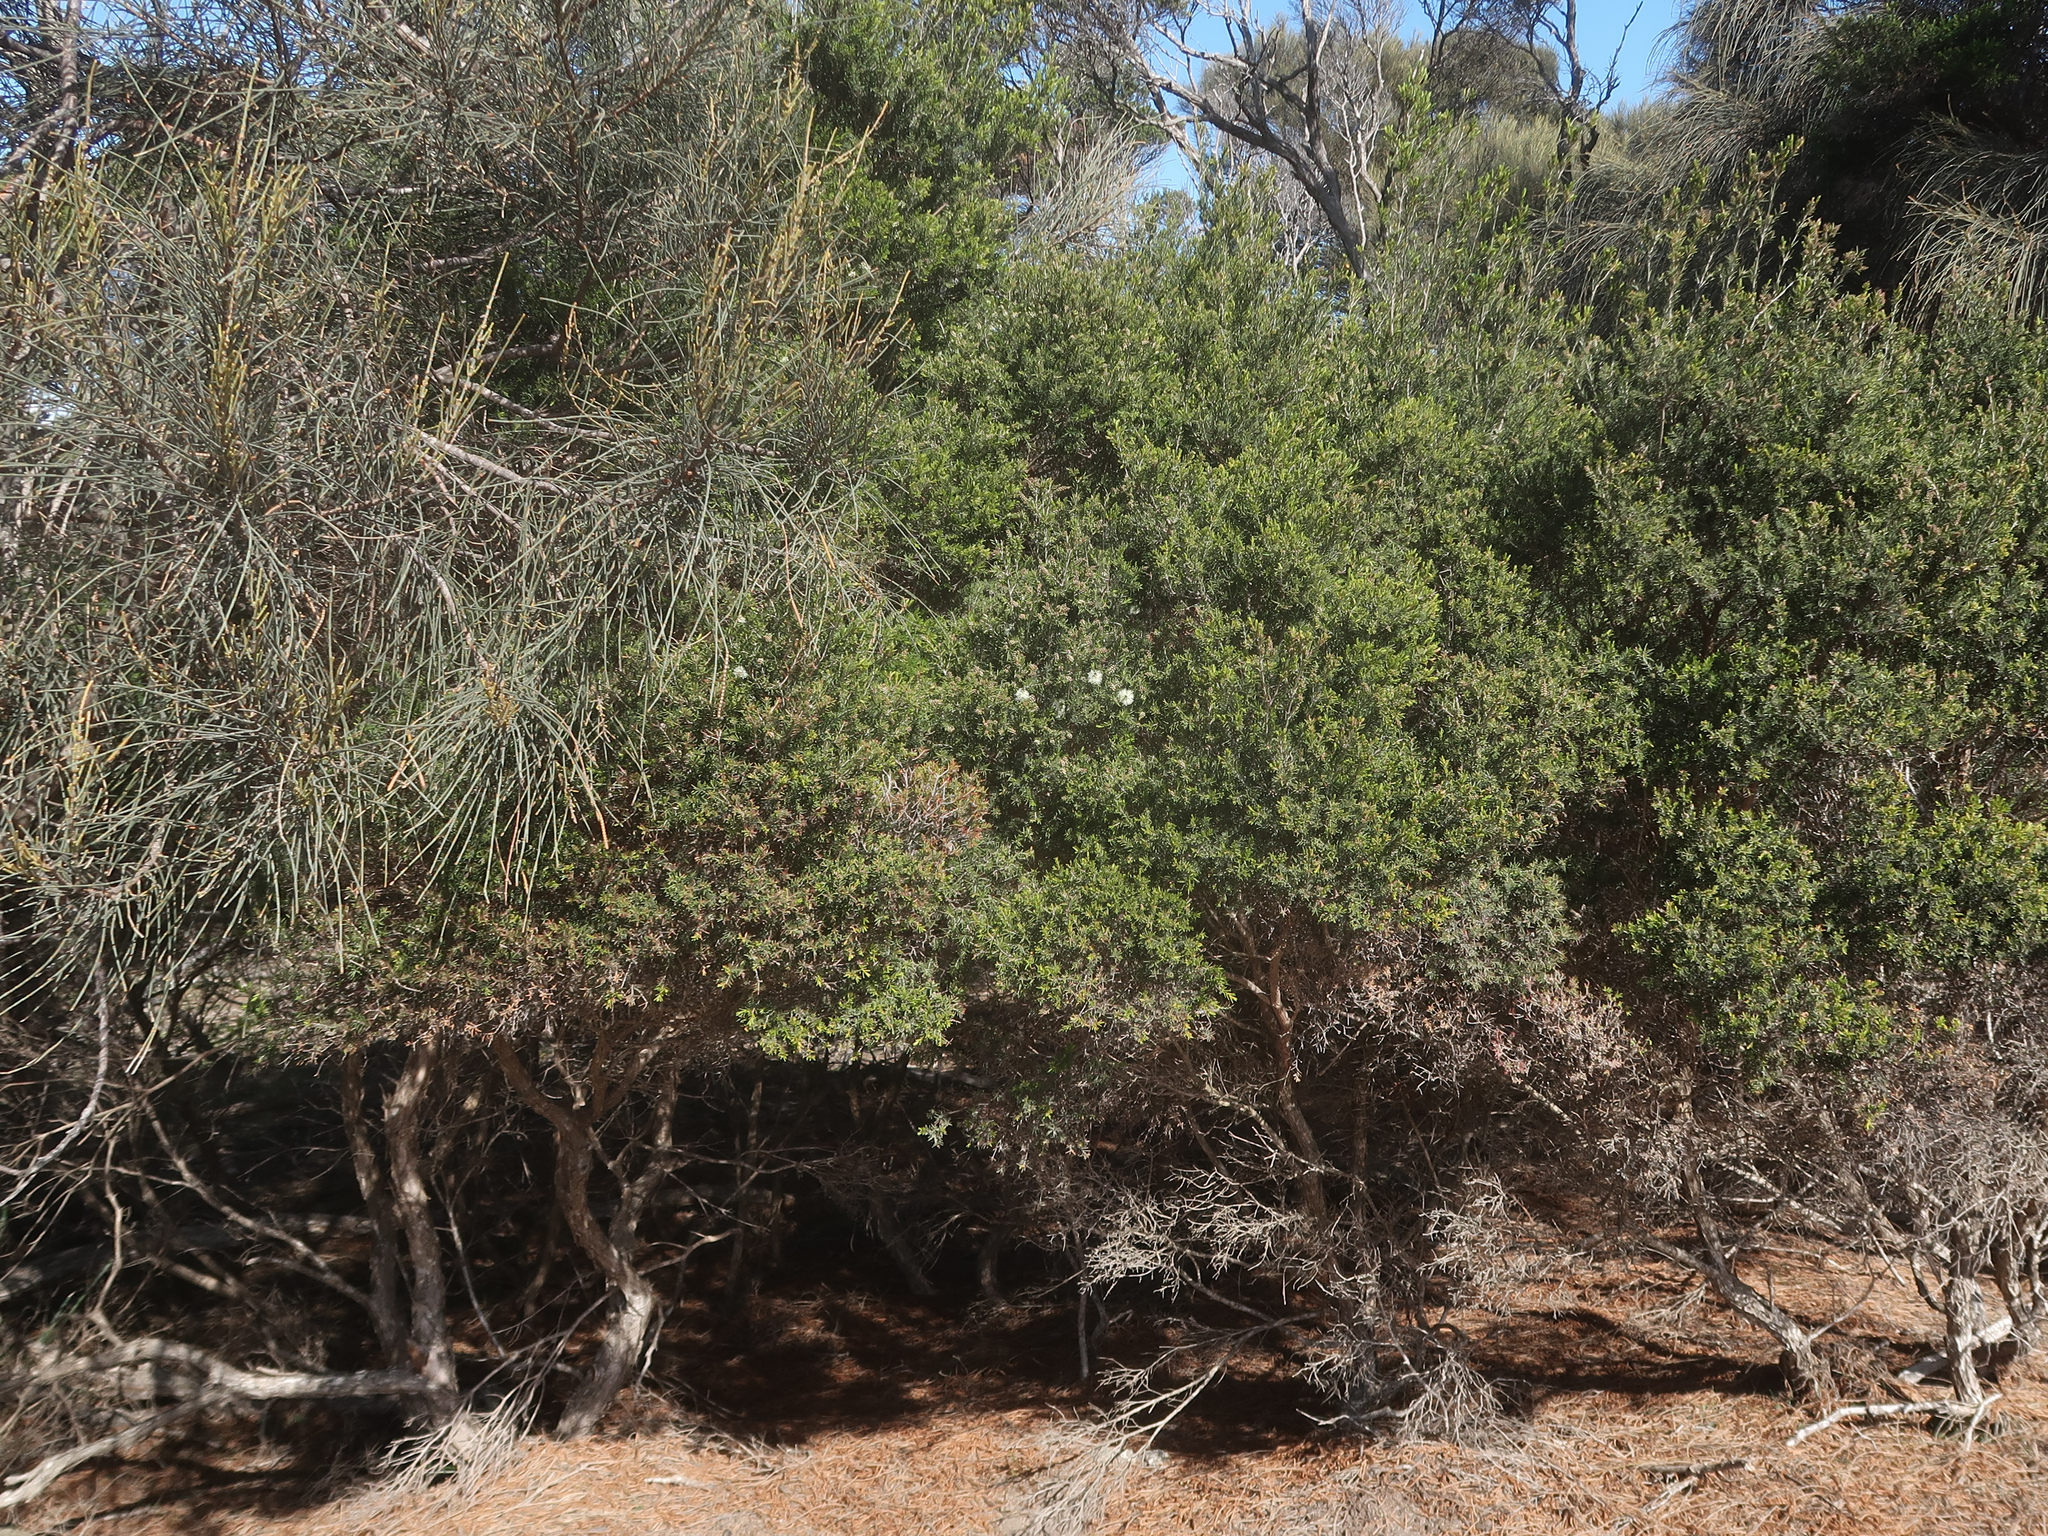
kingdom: Plantae
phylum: Tracheophyta
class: Magnoliopsida
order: Myrtales
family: Myrtaceae
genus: Melaleuca
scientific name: Melaleuca ericifolia
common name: Paperbark teatree
